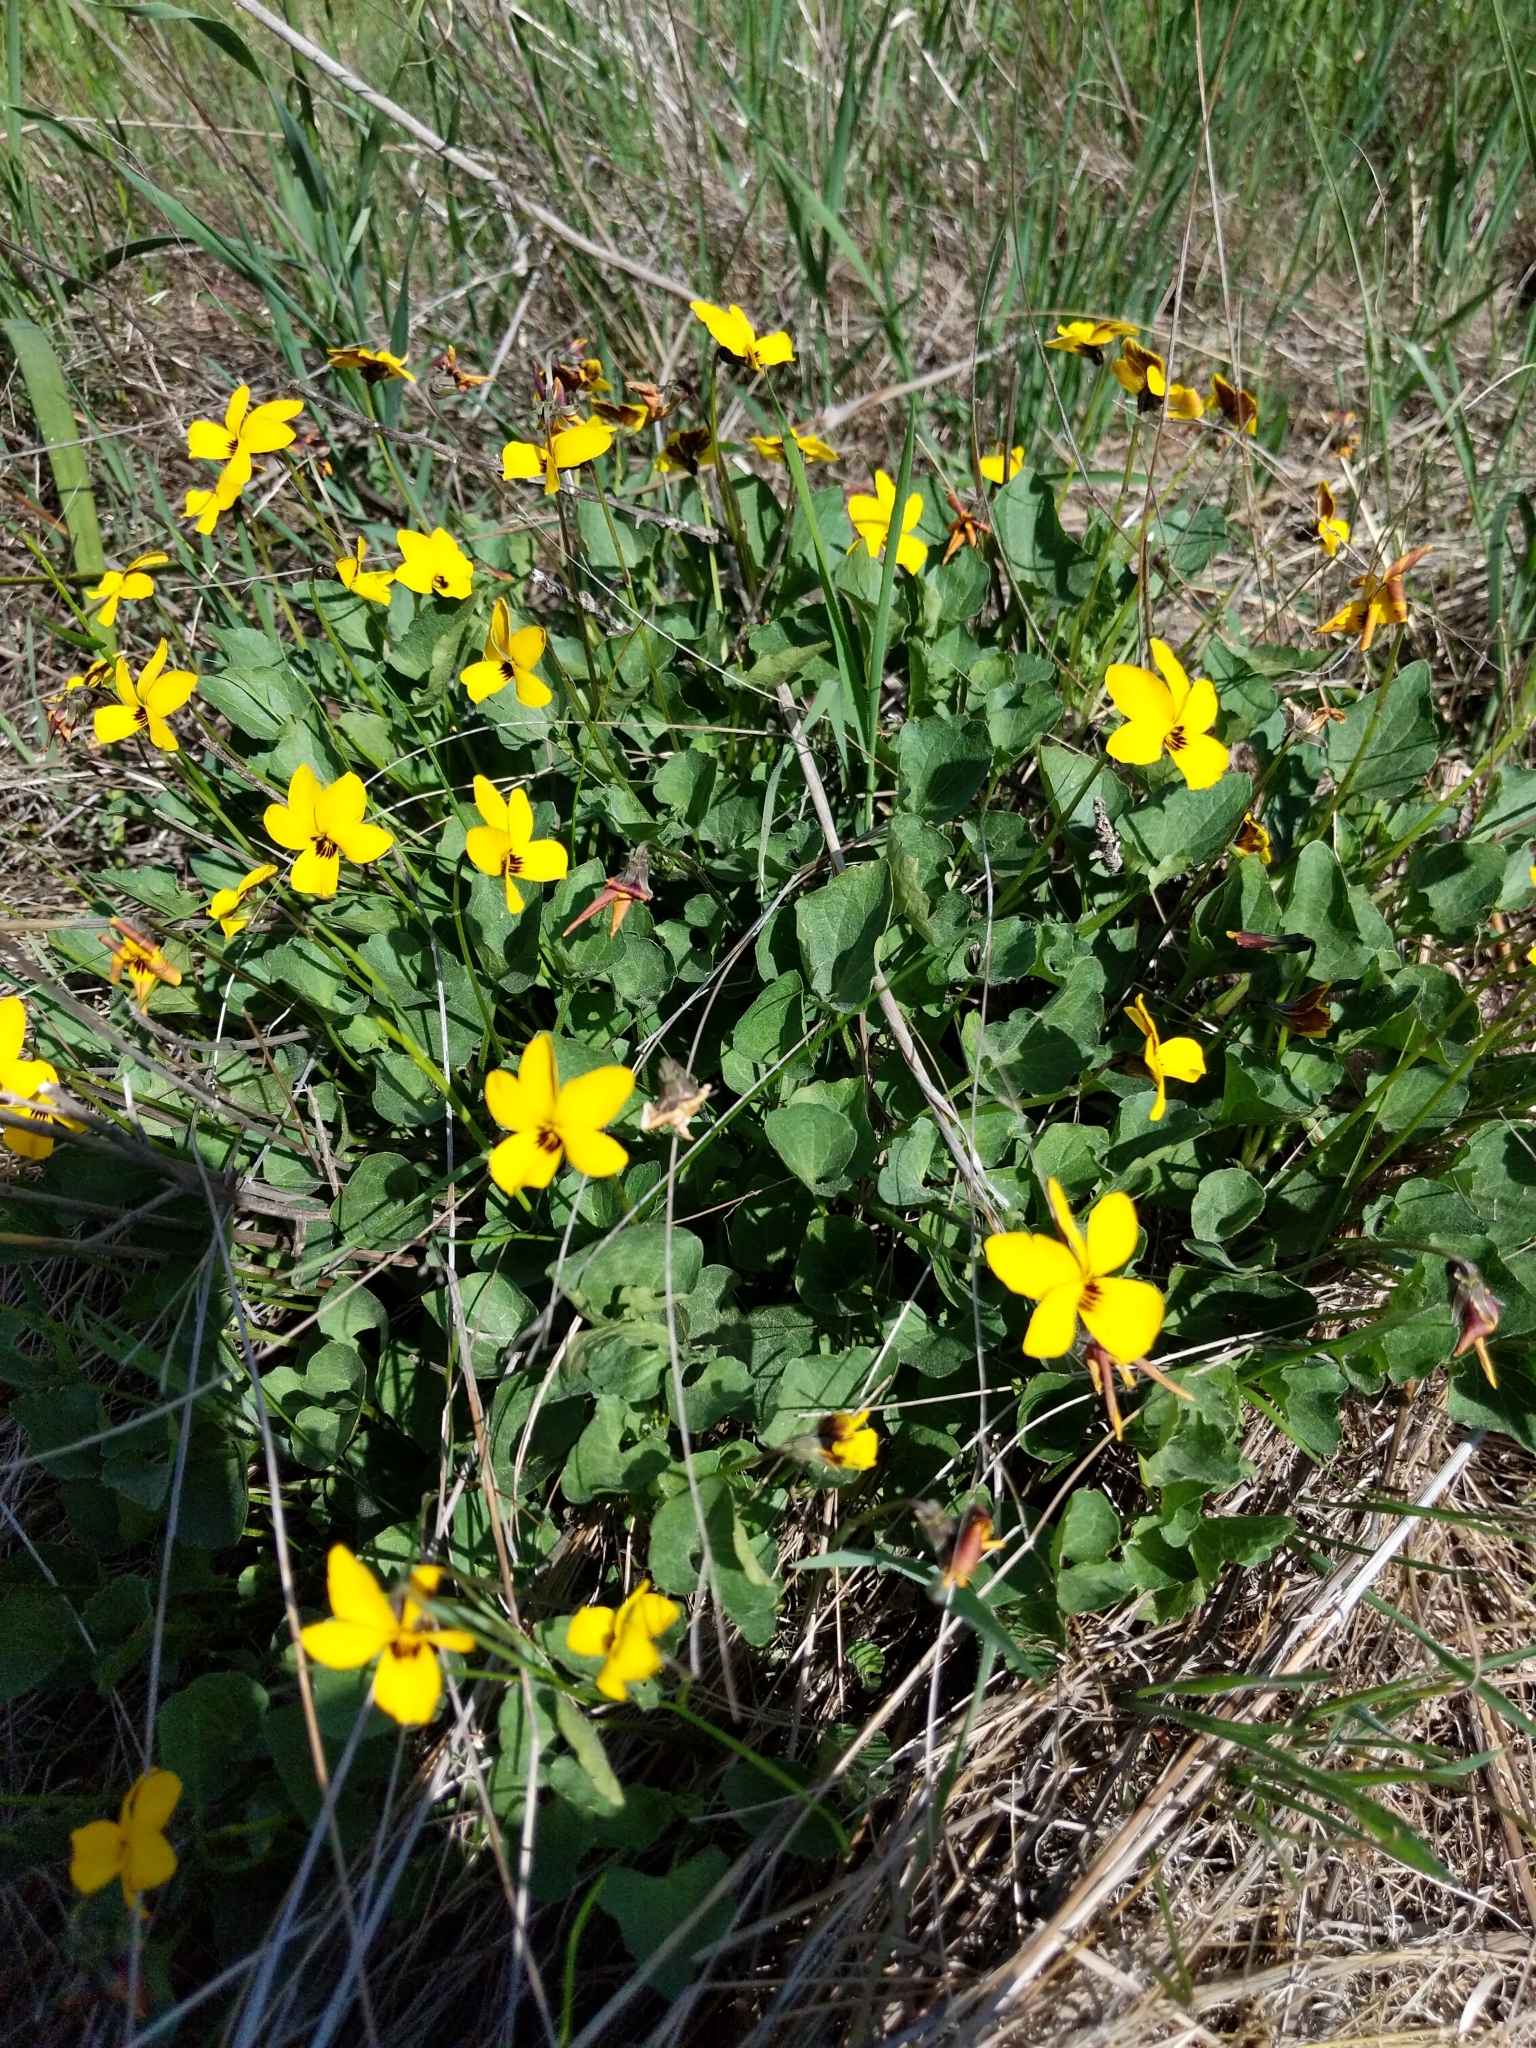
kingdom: Plantae
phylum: Tracheophyta
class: Magnoliopsida
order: Malpighiales
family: Violaceae
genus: Viola
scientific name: Viola pedunculata
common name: California golden violet
